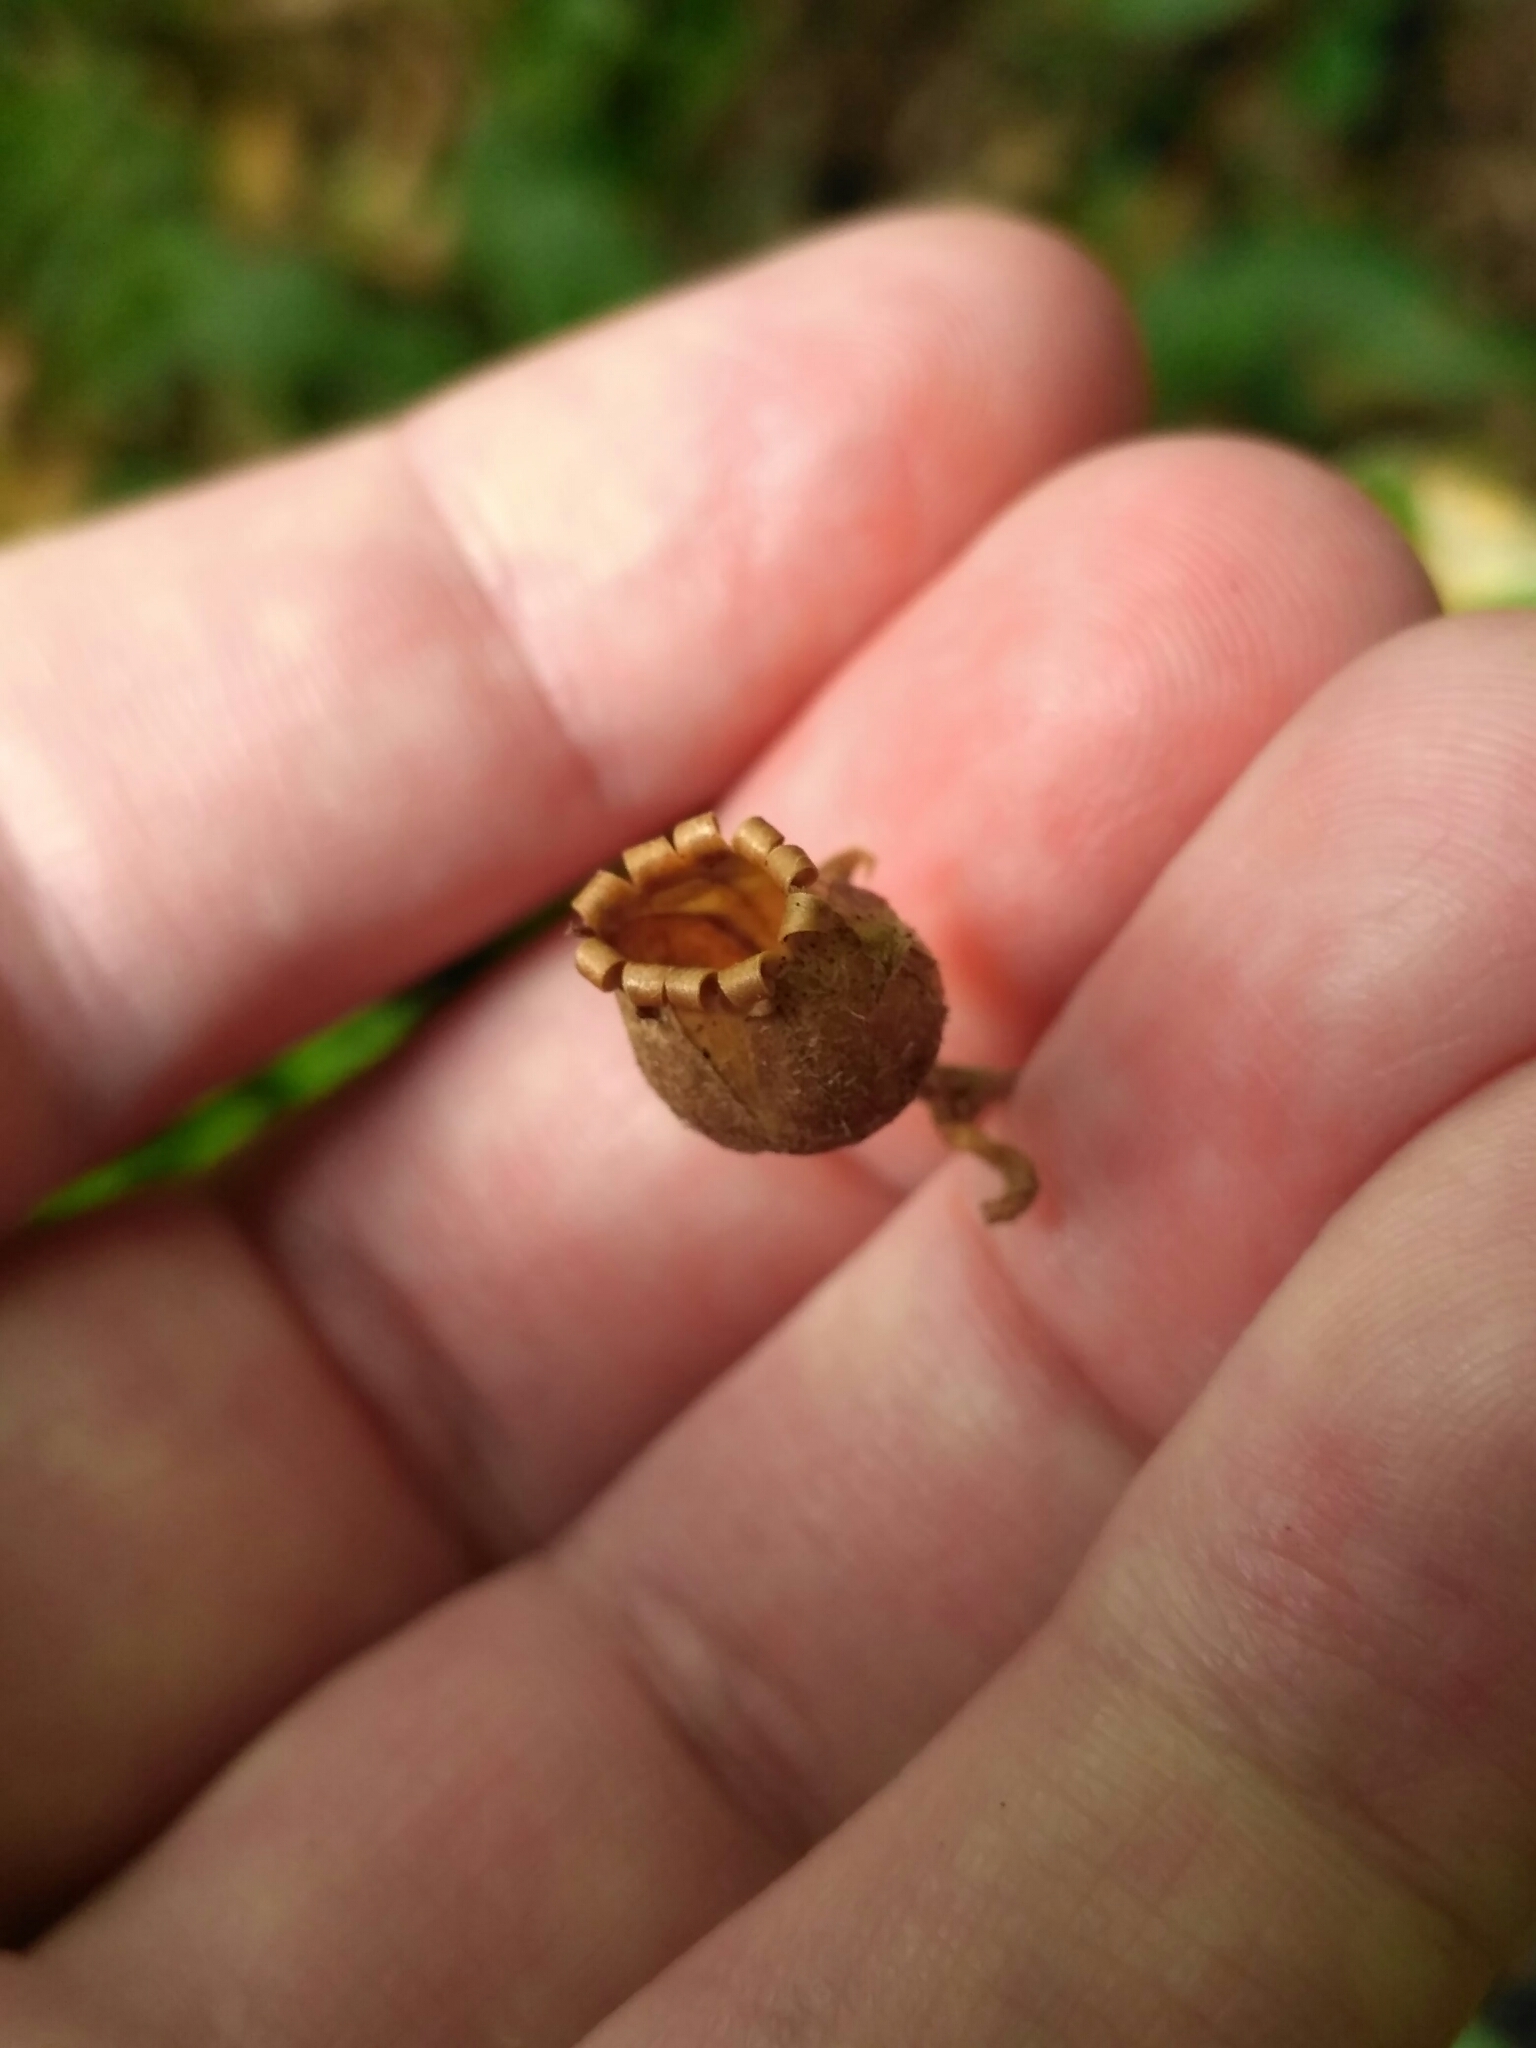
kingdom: Plantae
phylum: Tracheophyta
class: Magnoliopsida
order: Caryophyllales
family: Caryophyllaceae
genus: Silene
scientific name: Silene dioica
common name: Red campion
